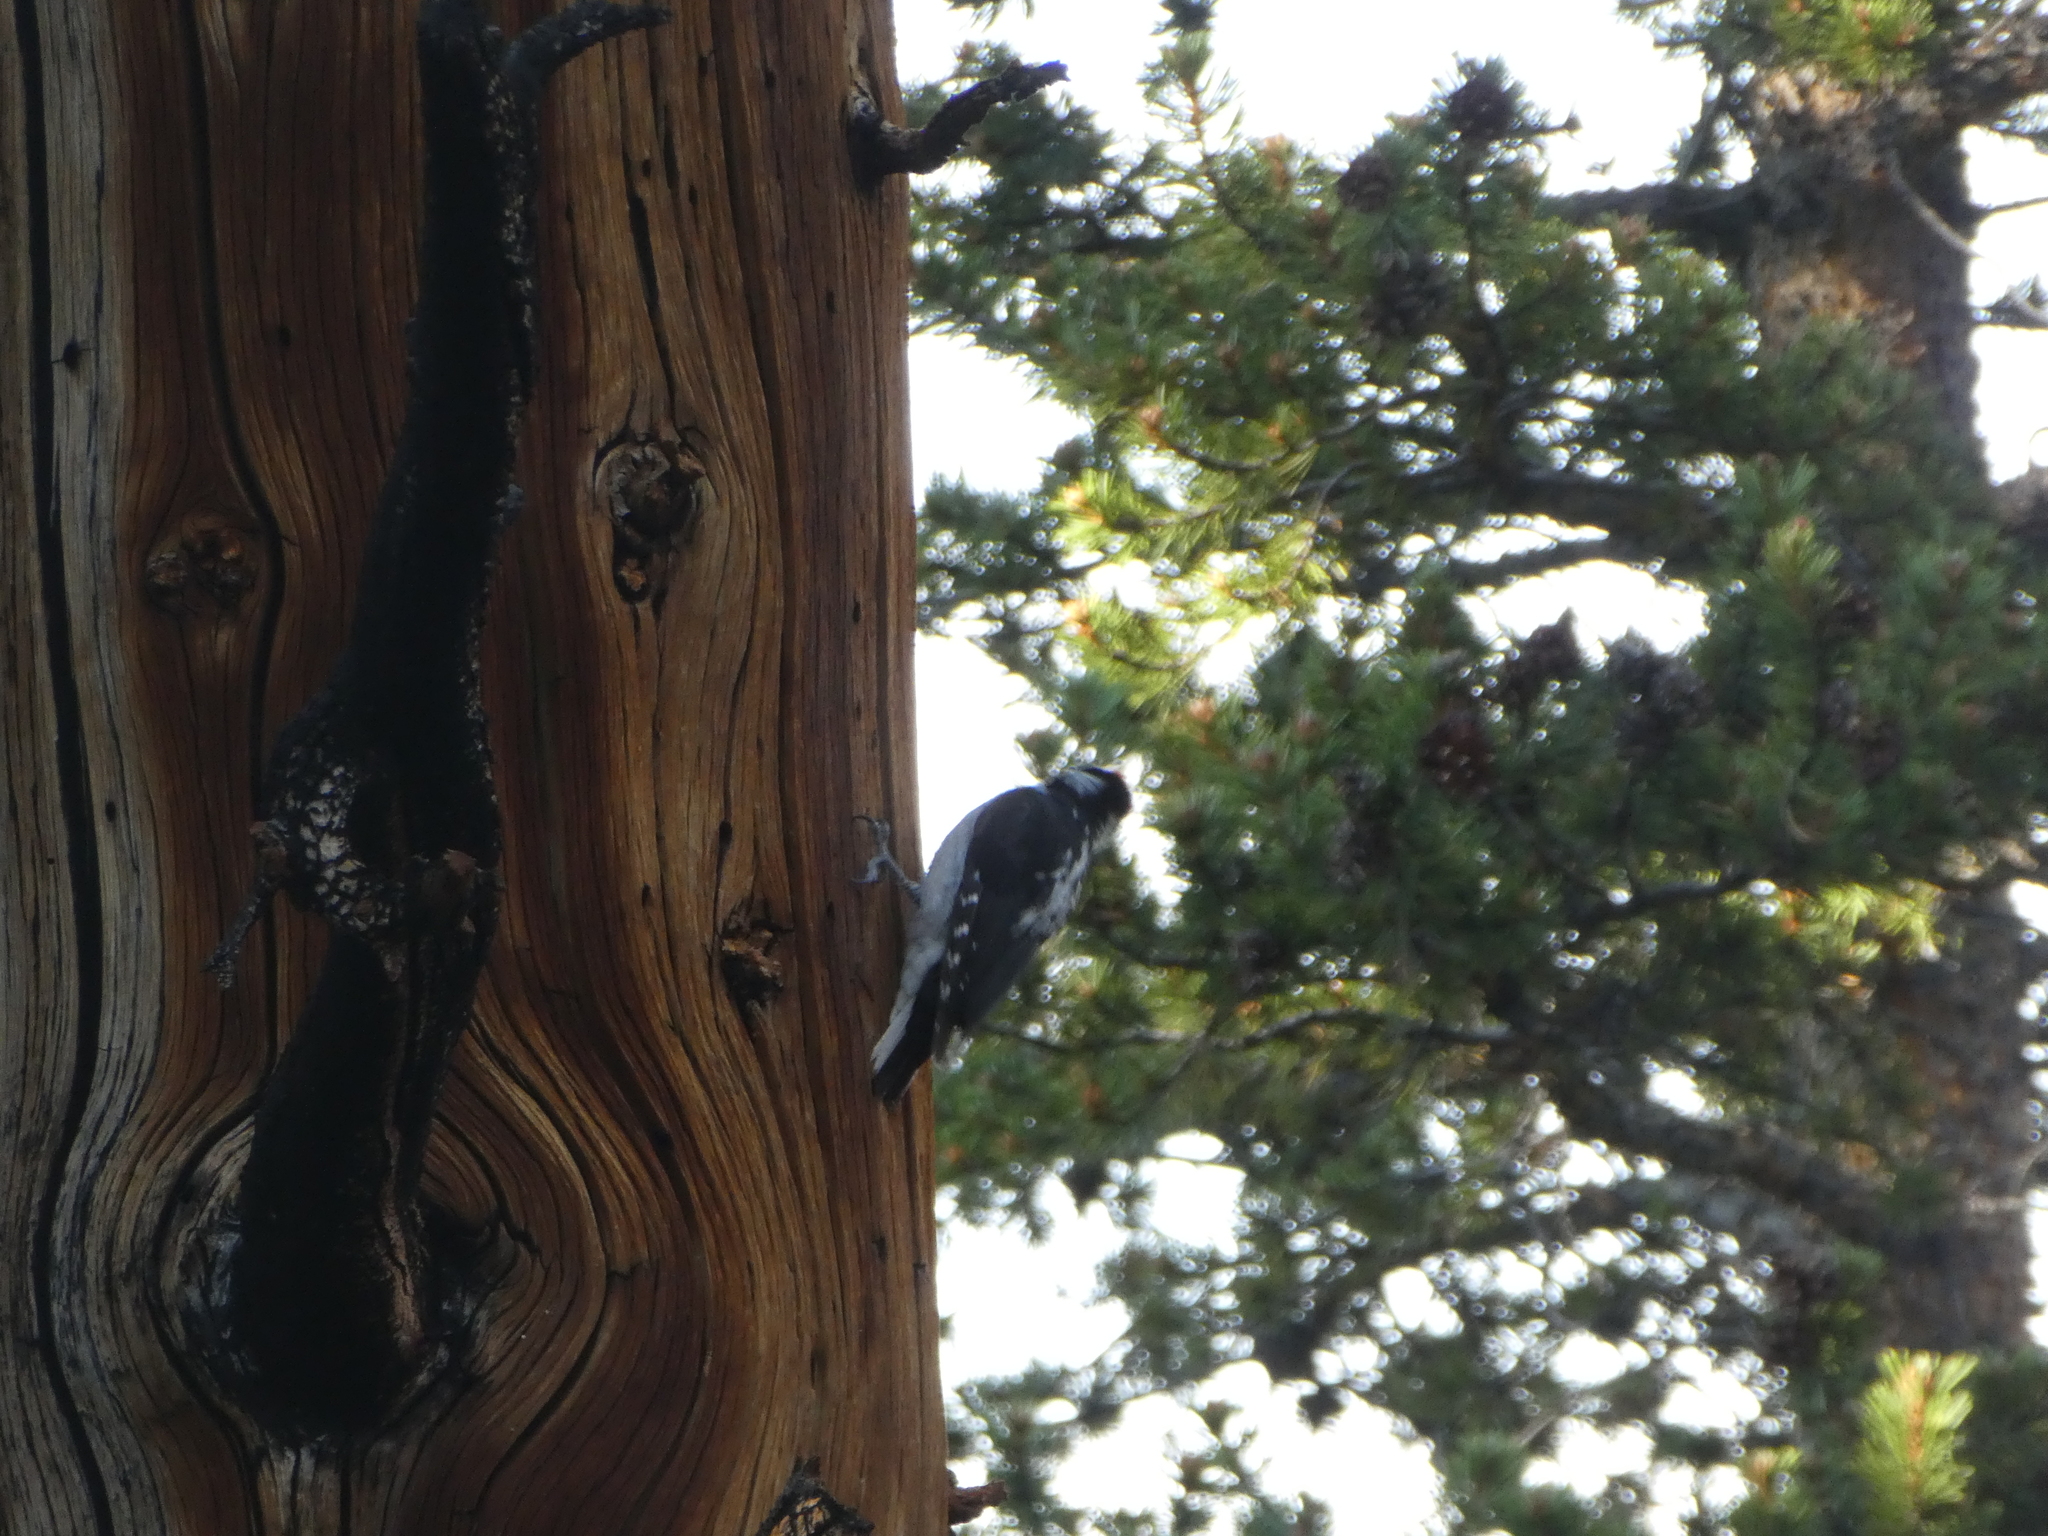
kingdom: Animalia
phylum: Chordata
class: Aves
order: Piciformes
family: Picidae
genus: Leuconotopicus
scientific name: Leuconotopicus villosus
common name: Hairy woodpecker
